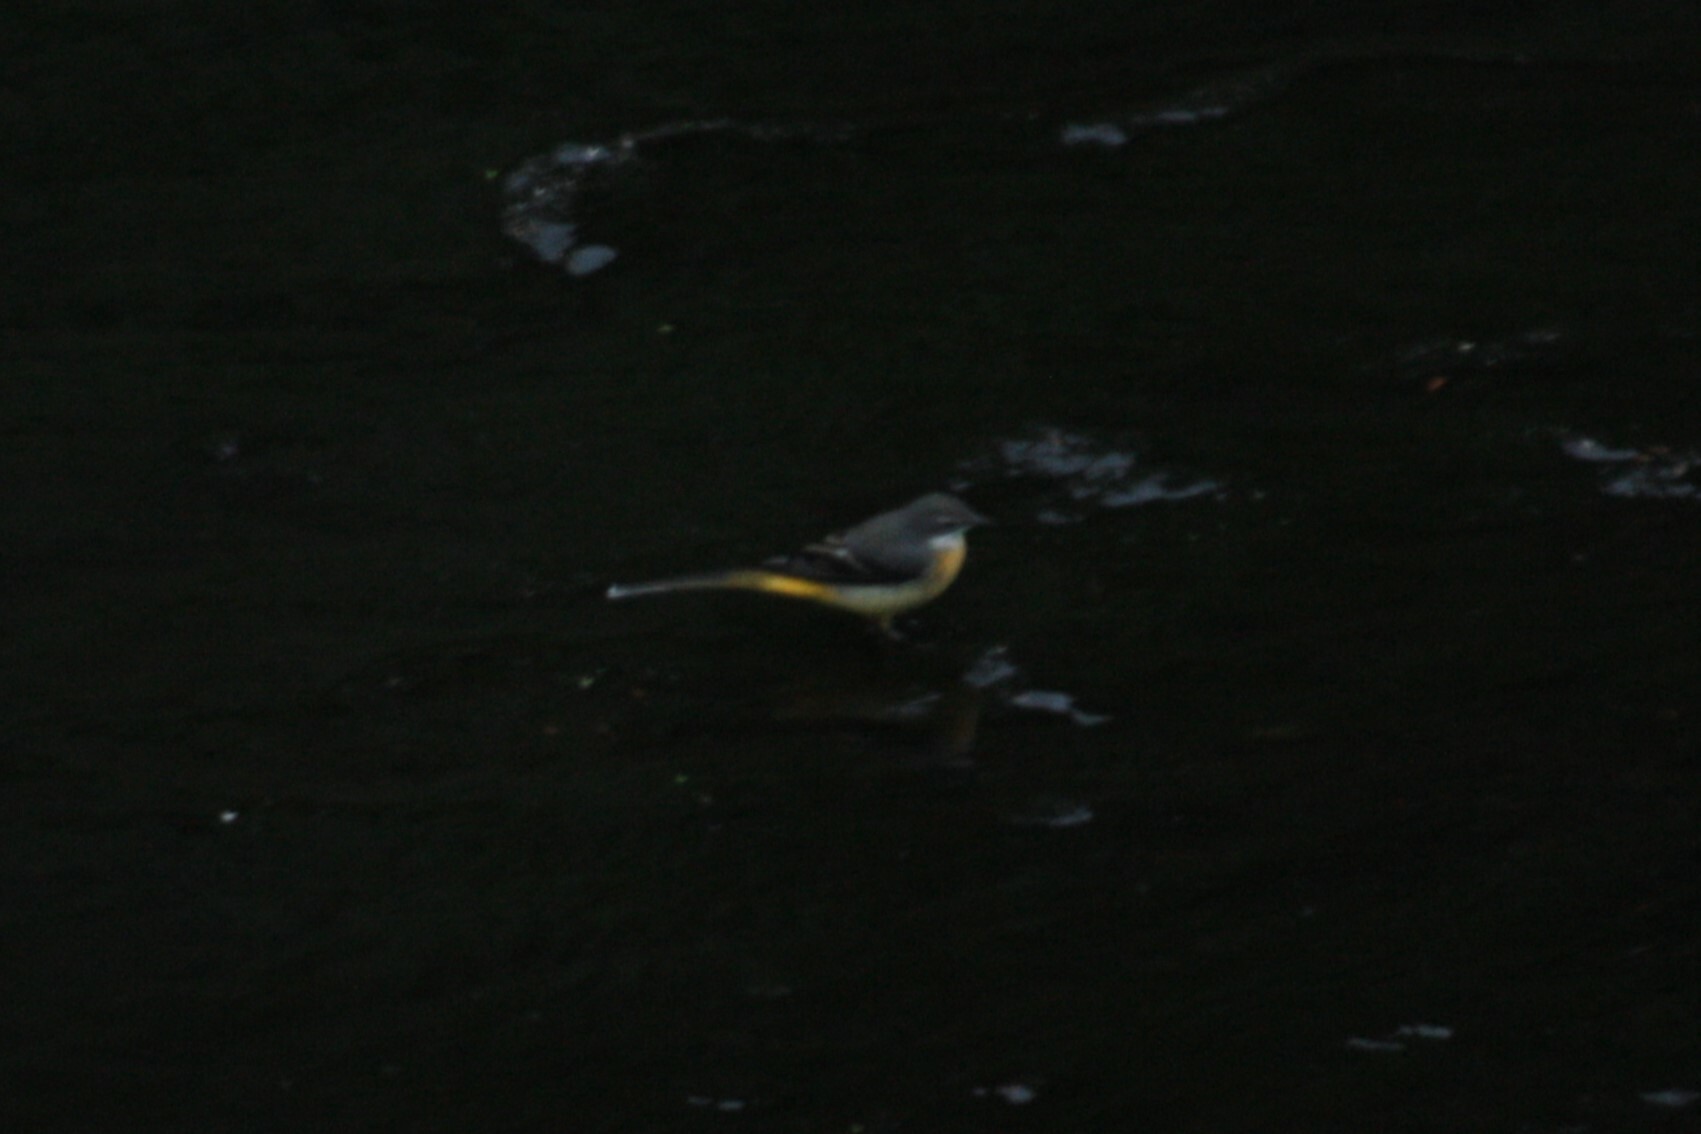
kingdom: Animalia
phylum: Chordata
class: Aves
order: Passeriformes
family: Motacillidae
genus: Motacilla
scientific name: Motacilla cinerea
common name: Grey wagtail
